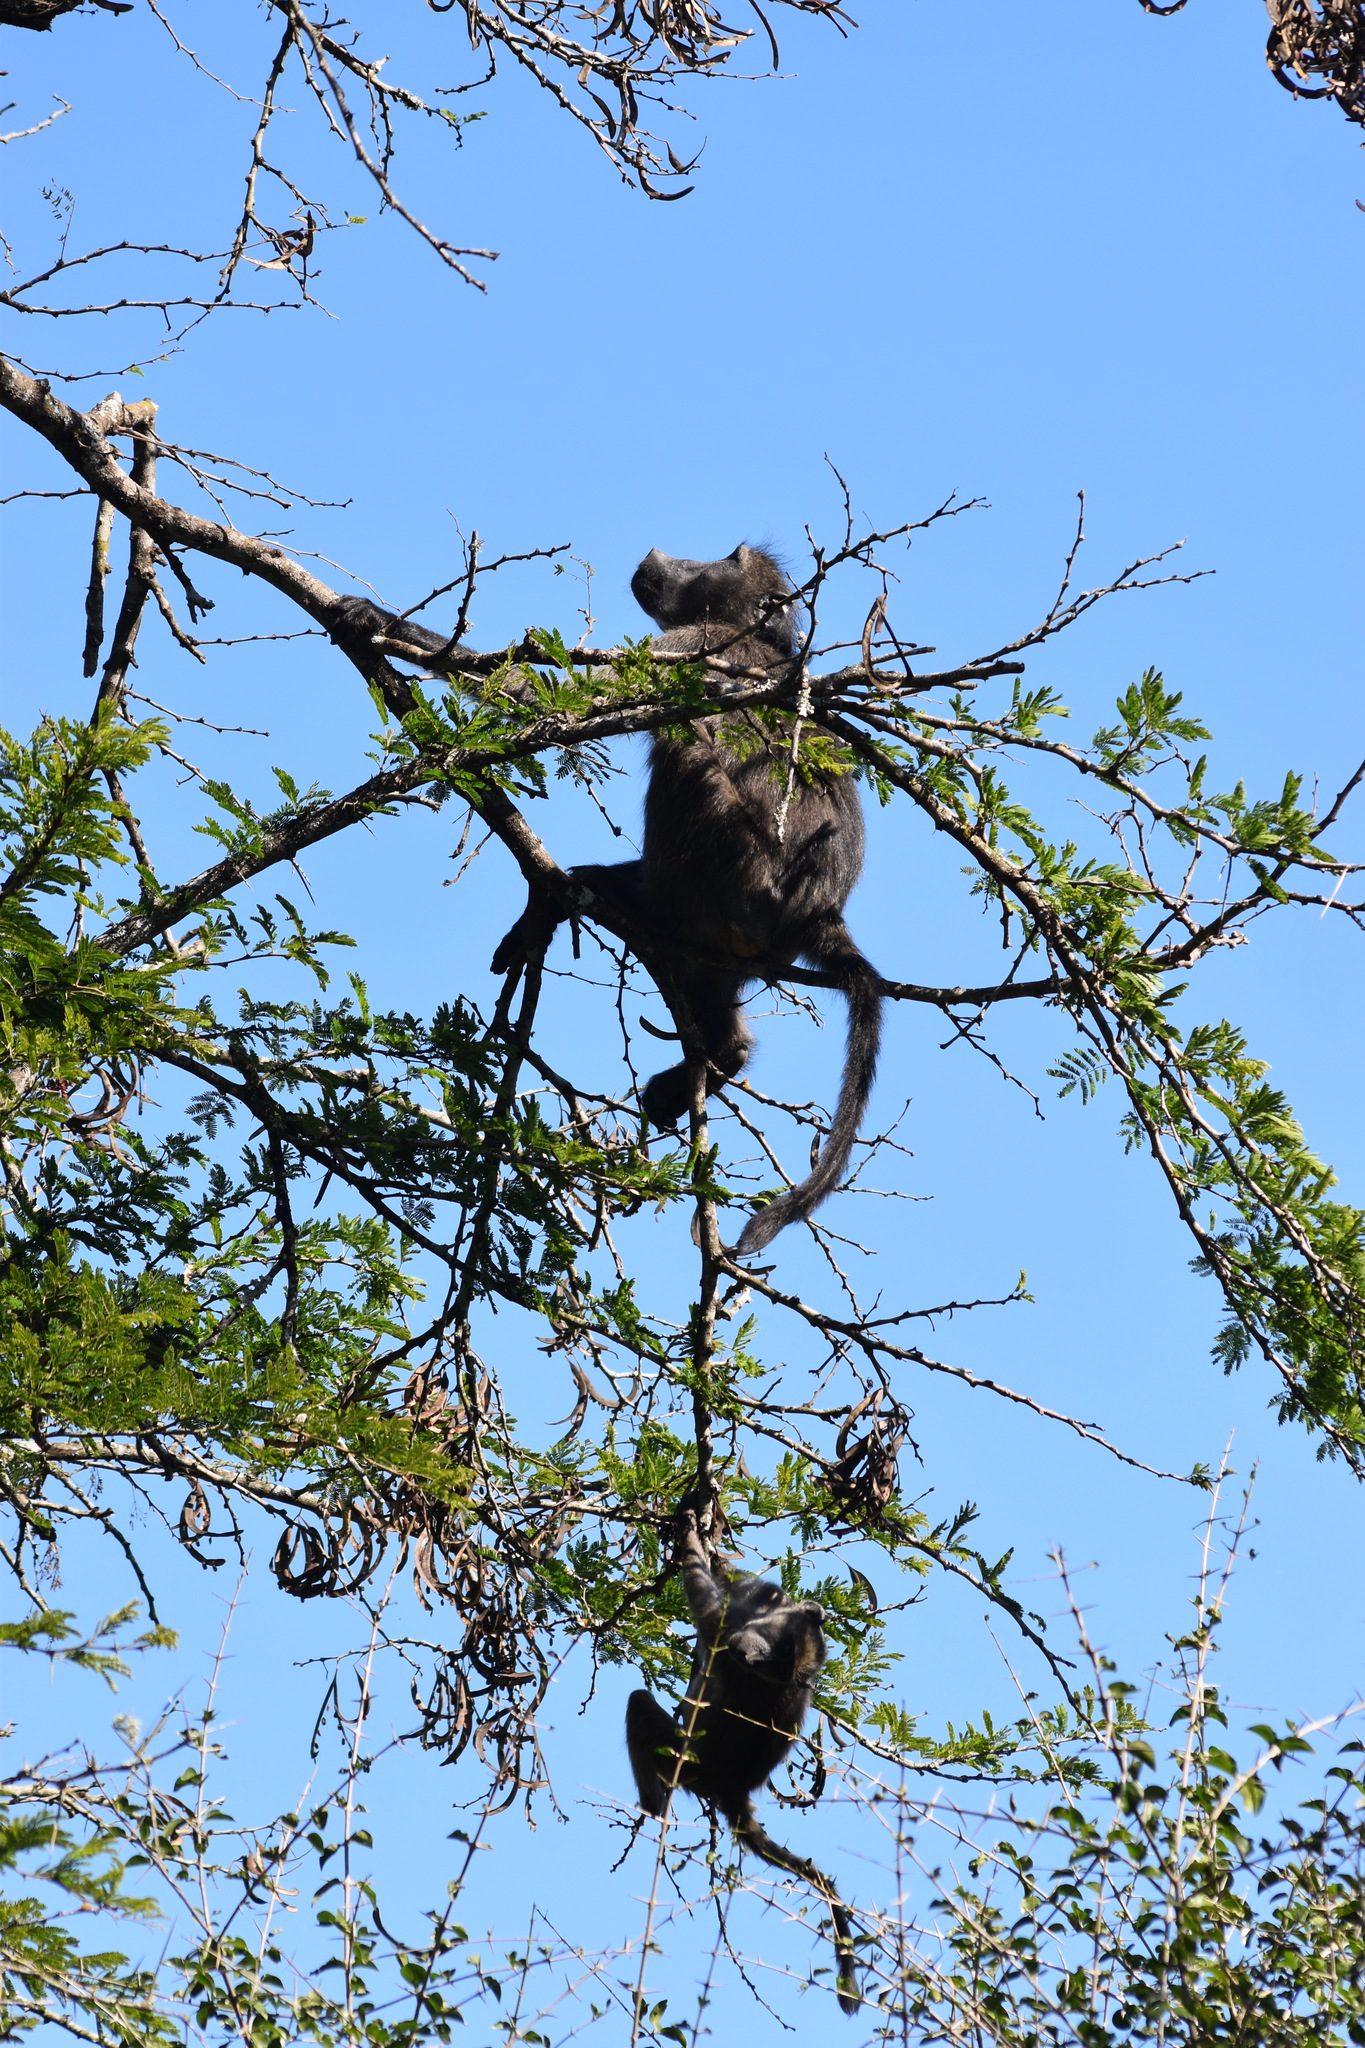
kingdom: Animalia
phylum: Chordata
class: Mammalia
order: Primates
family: Cercopithecidae
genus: Papio
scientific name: Papio ursinus
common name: Chacma baboon
